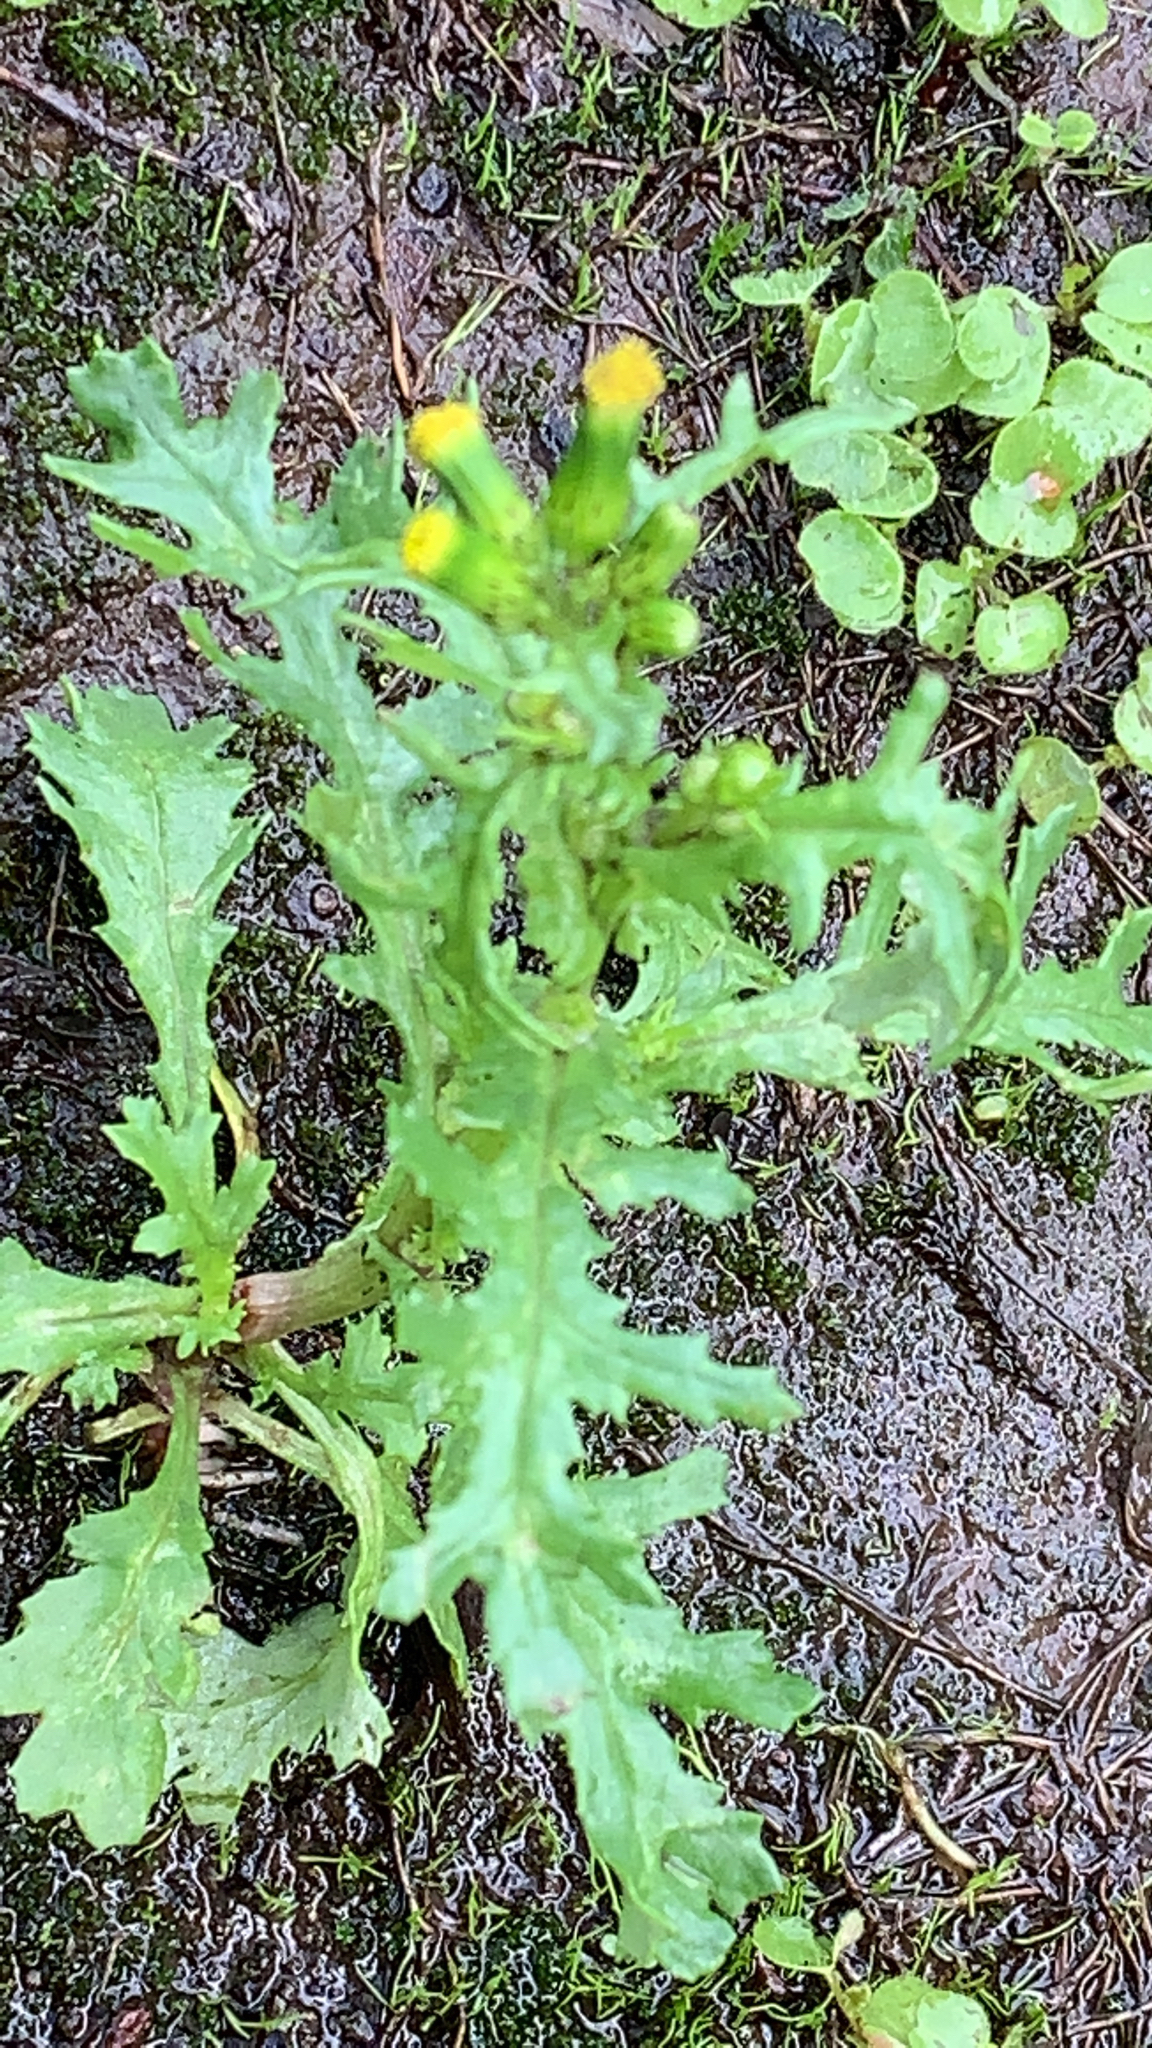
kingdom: Plantae
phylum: Tracheophyta
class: Magnoliopsida
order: Asterales
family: Asteraceae
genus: Senecio
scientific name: Senecio vulgaris
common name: Old-man-in-the-spring
